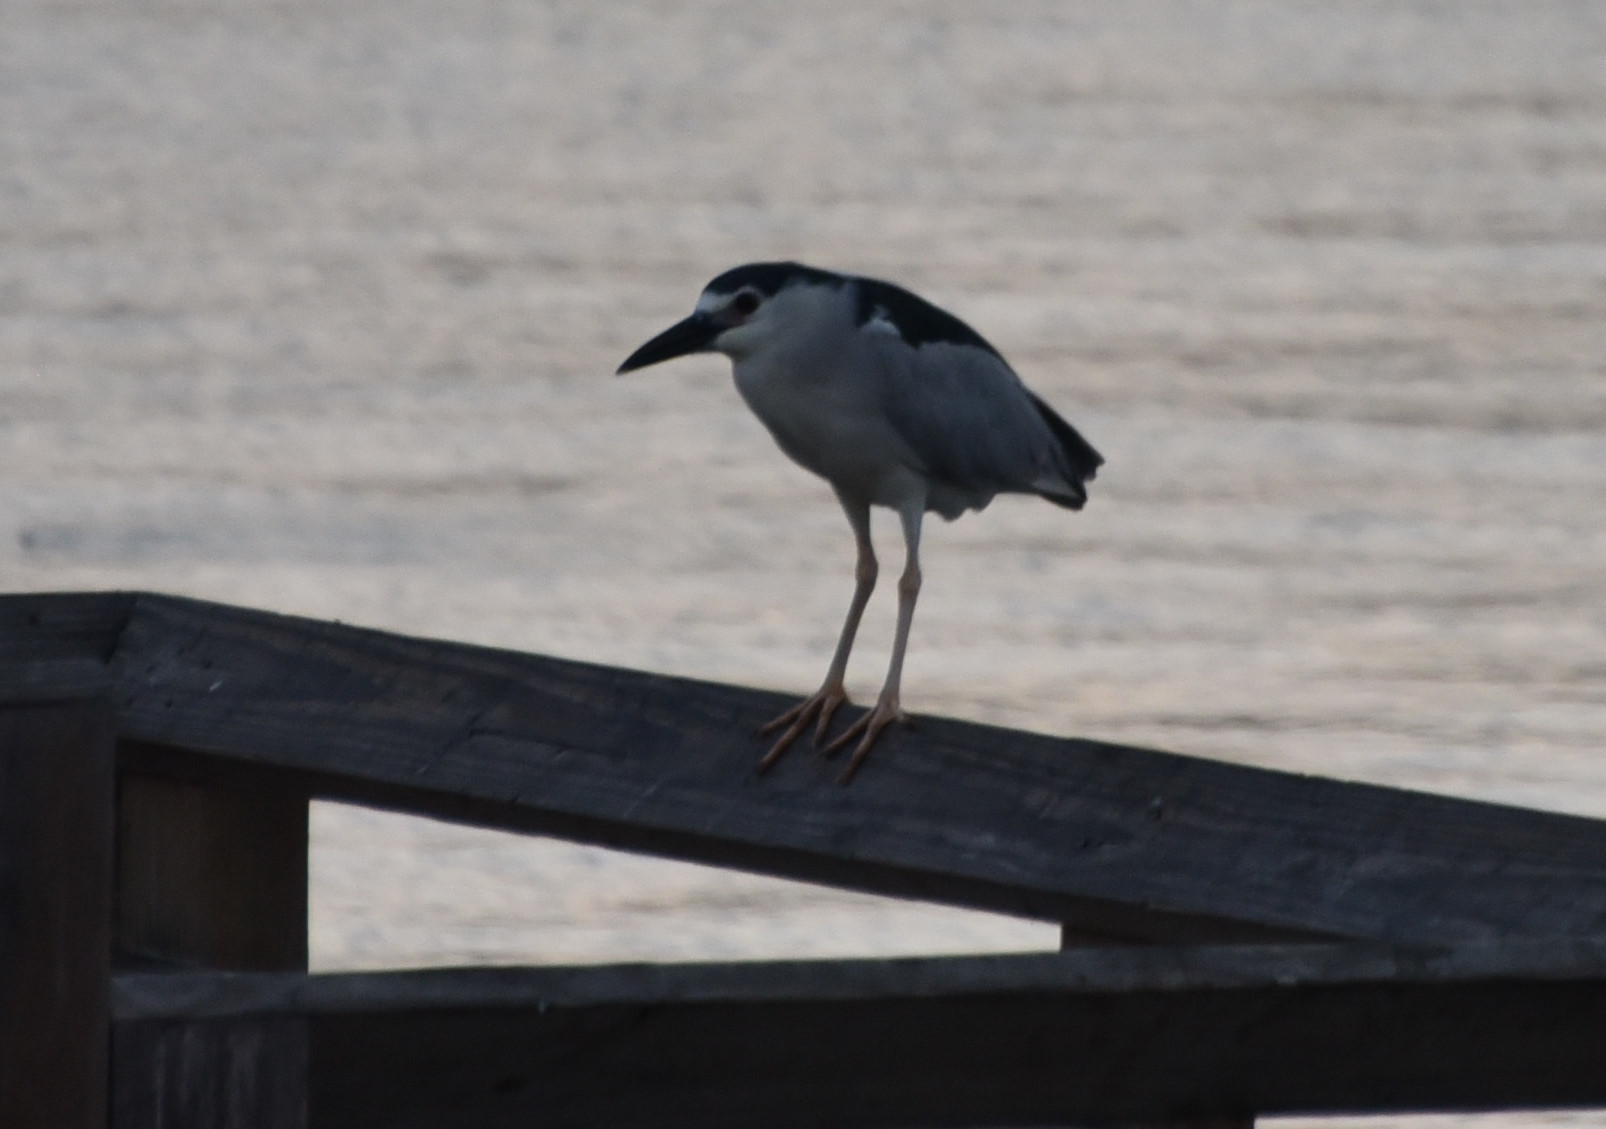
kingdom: Animalia
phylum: Chordata
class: Aves
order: Pelecaniformes
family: Ardeidae
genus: Nycticorax
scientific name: Nycticorax nycticorax
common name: Black-crowned night heron
